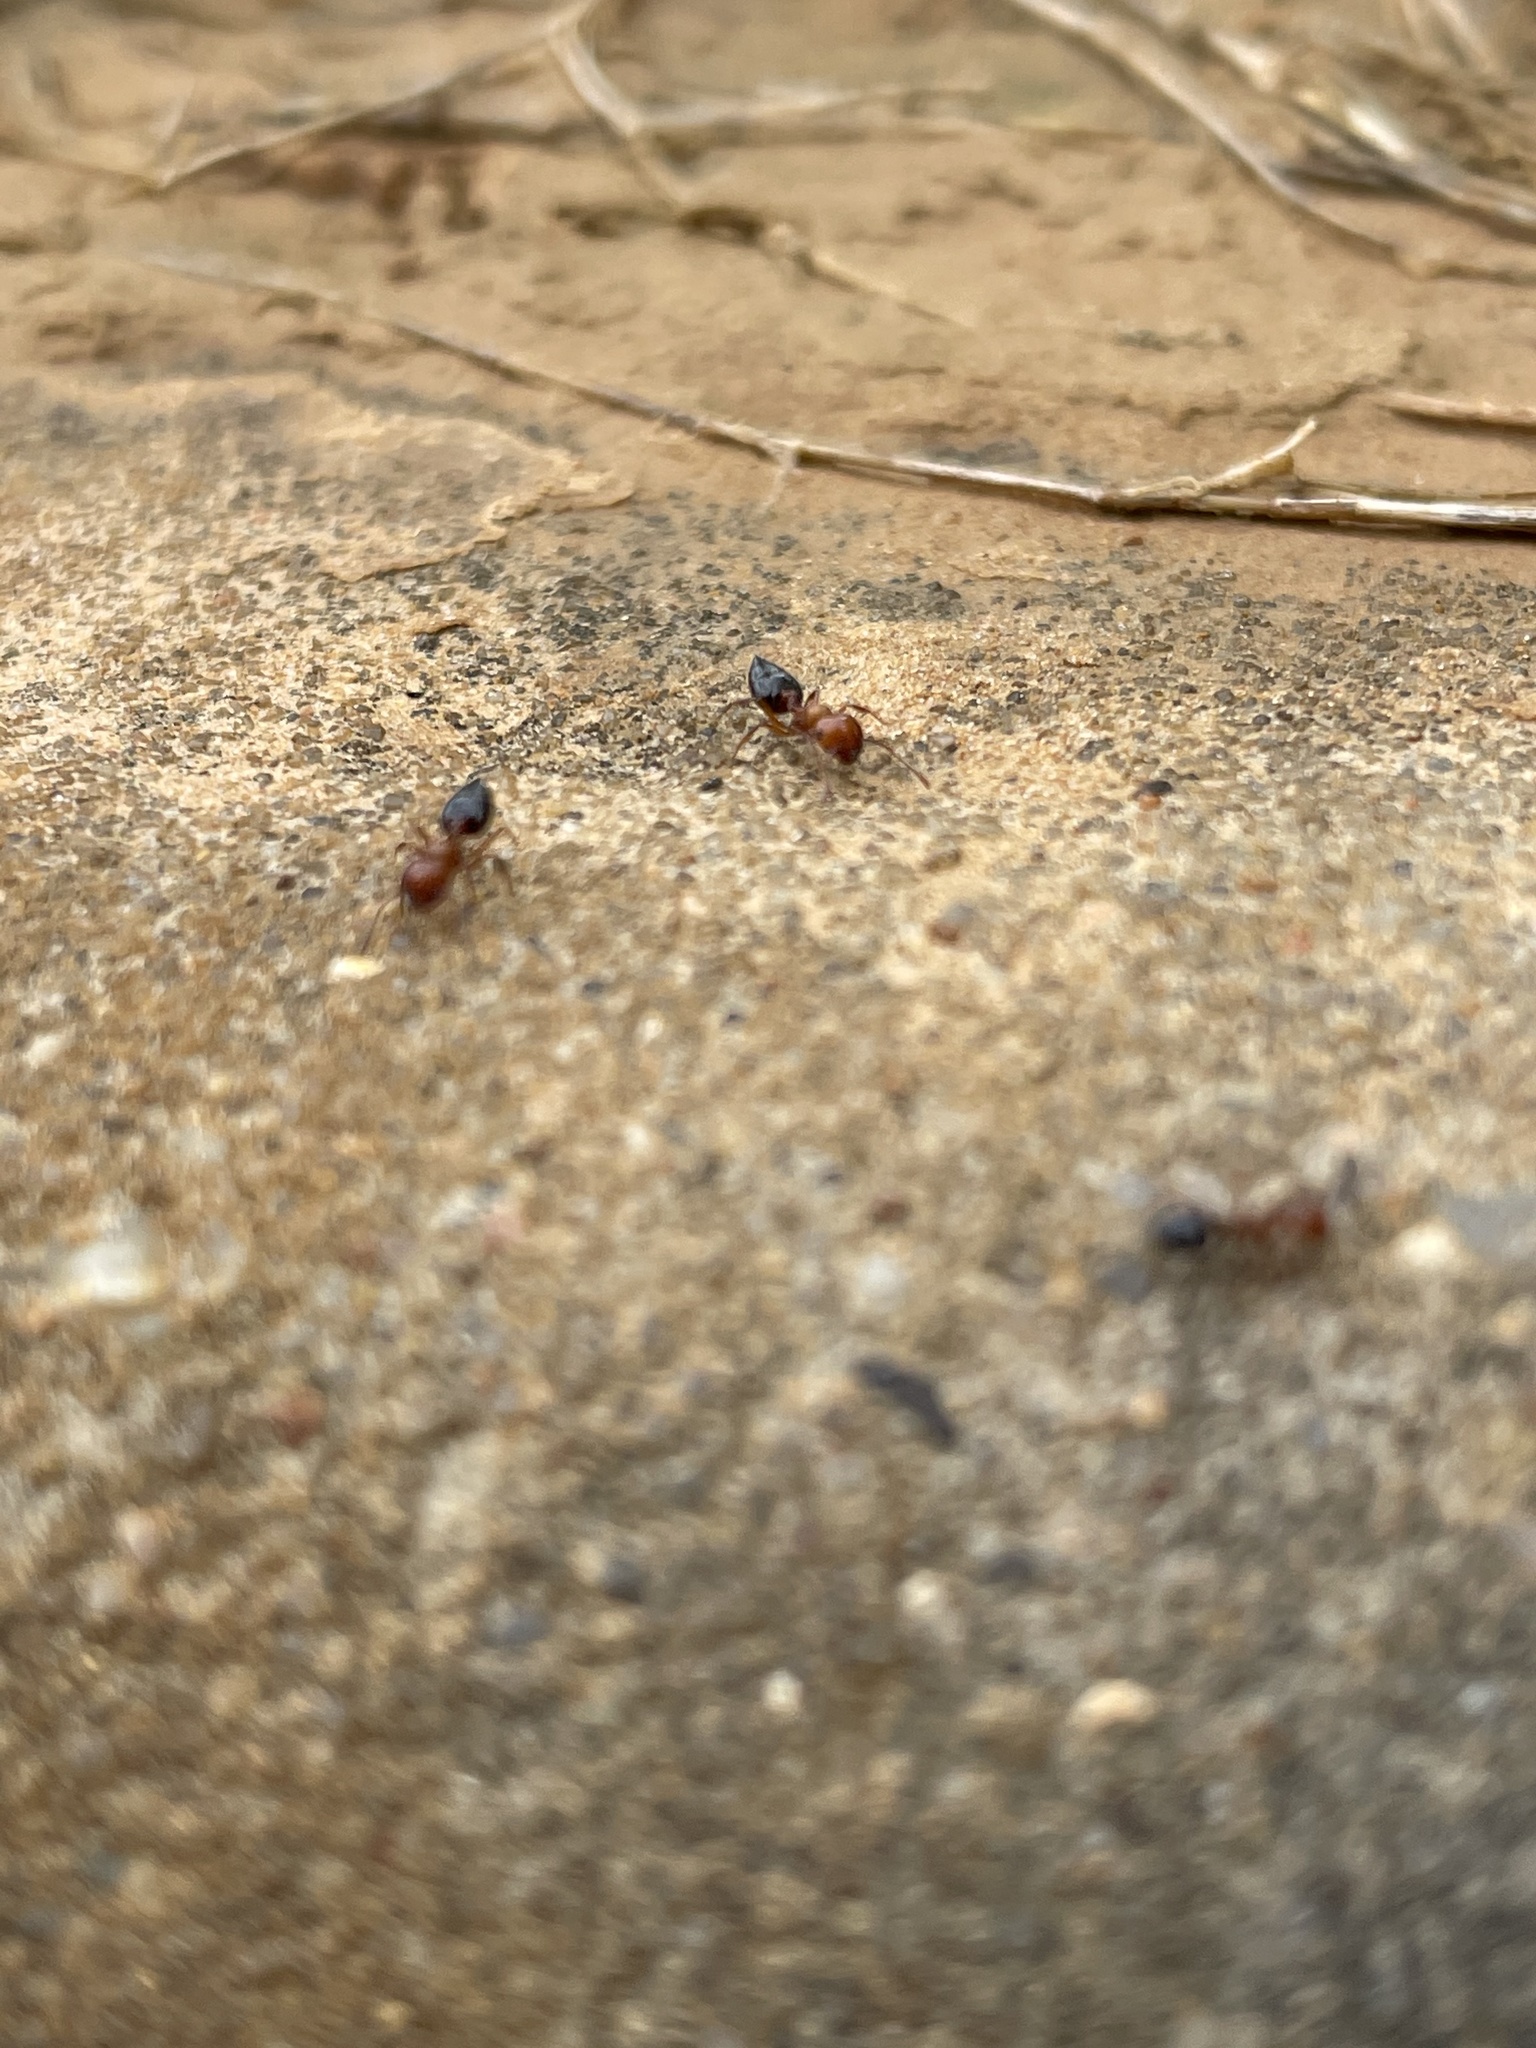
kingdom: Animalia
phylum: Arthropoda
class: Insecta
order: Hymenoptera
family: Formicidae
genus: Crematogaster
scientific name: Crematogaster laeviuscula
